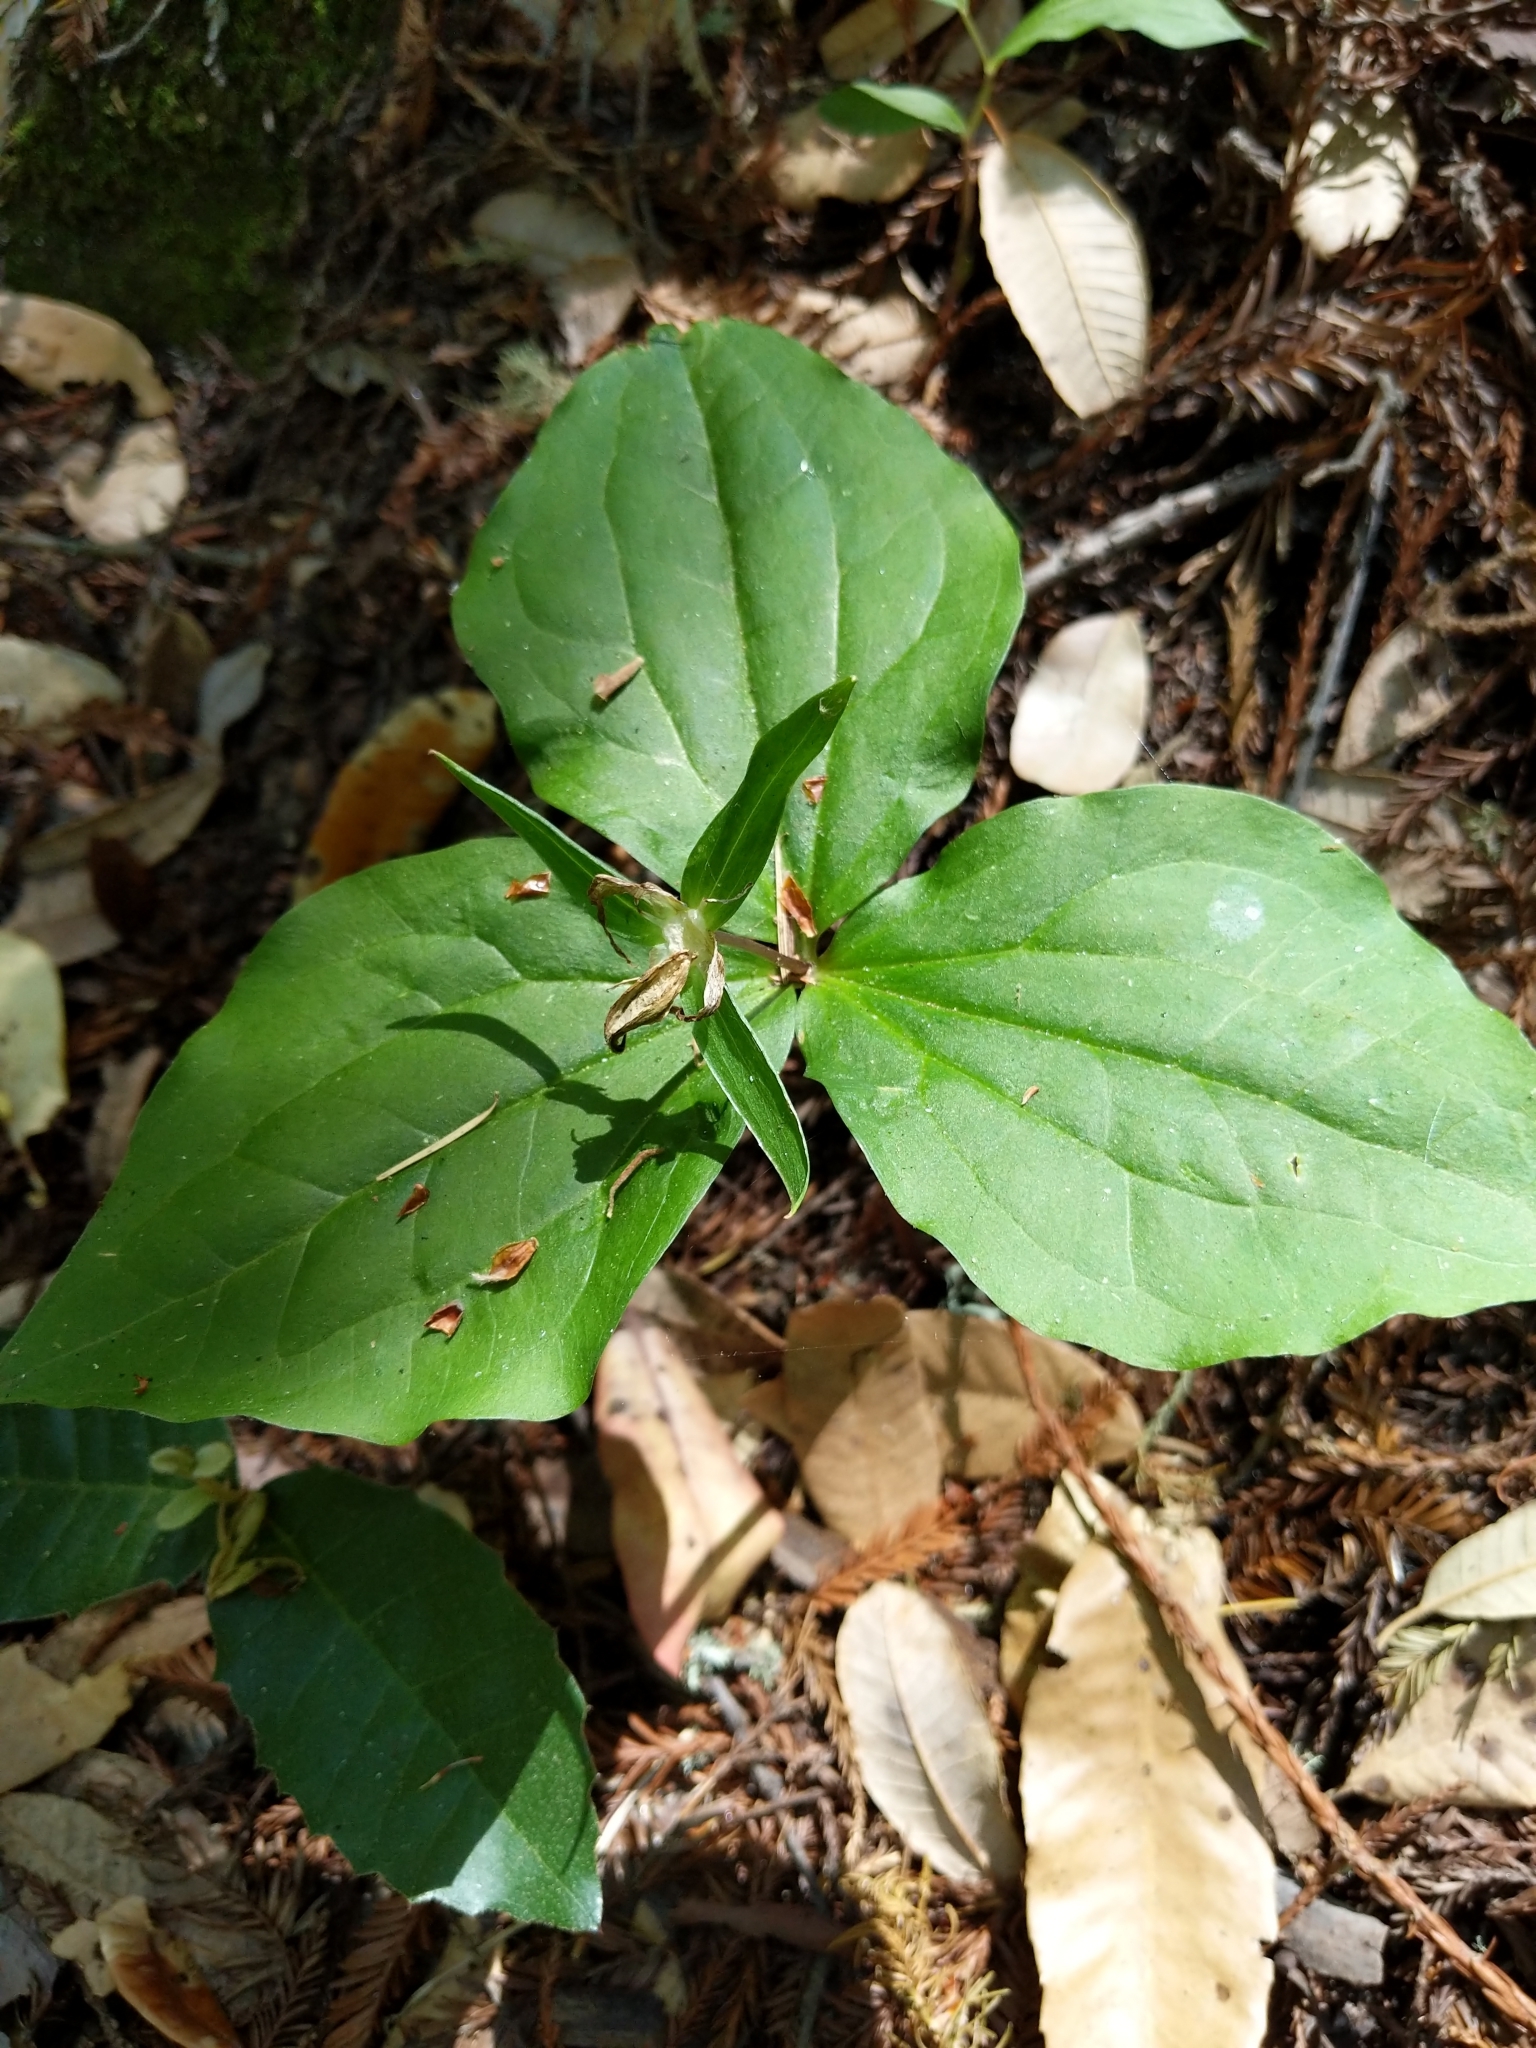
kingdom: Plantae
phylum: Tracheophyta
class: Liliopsida
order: Liliales
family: Melanthiaceae
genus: Trillium
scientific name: Trillium ovatum
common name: Pacific trillium
